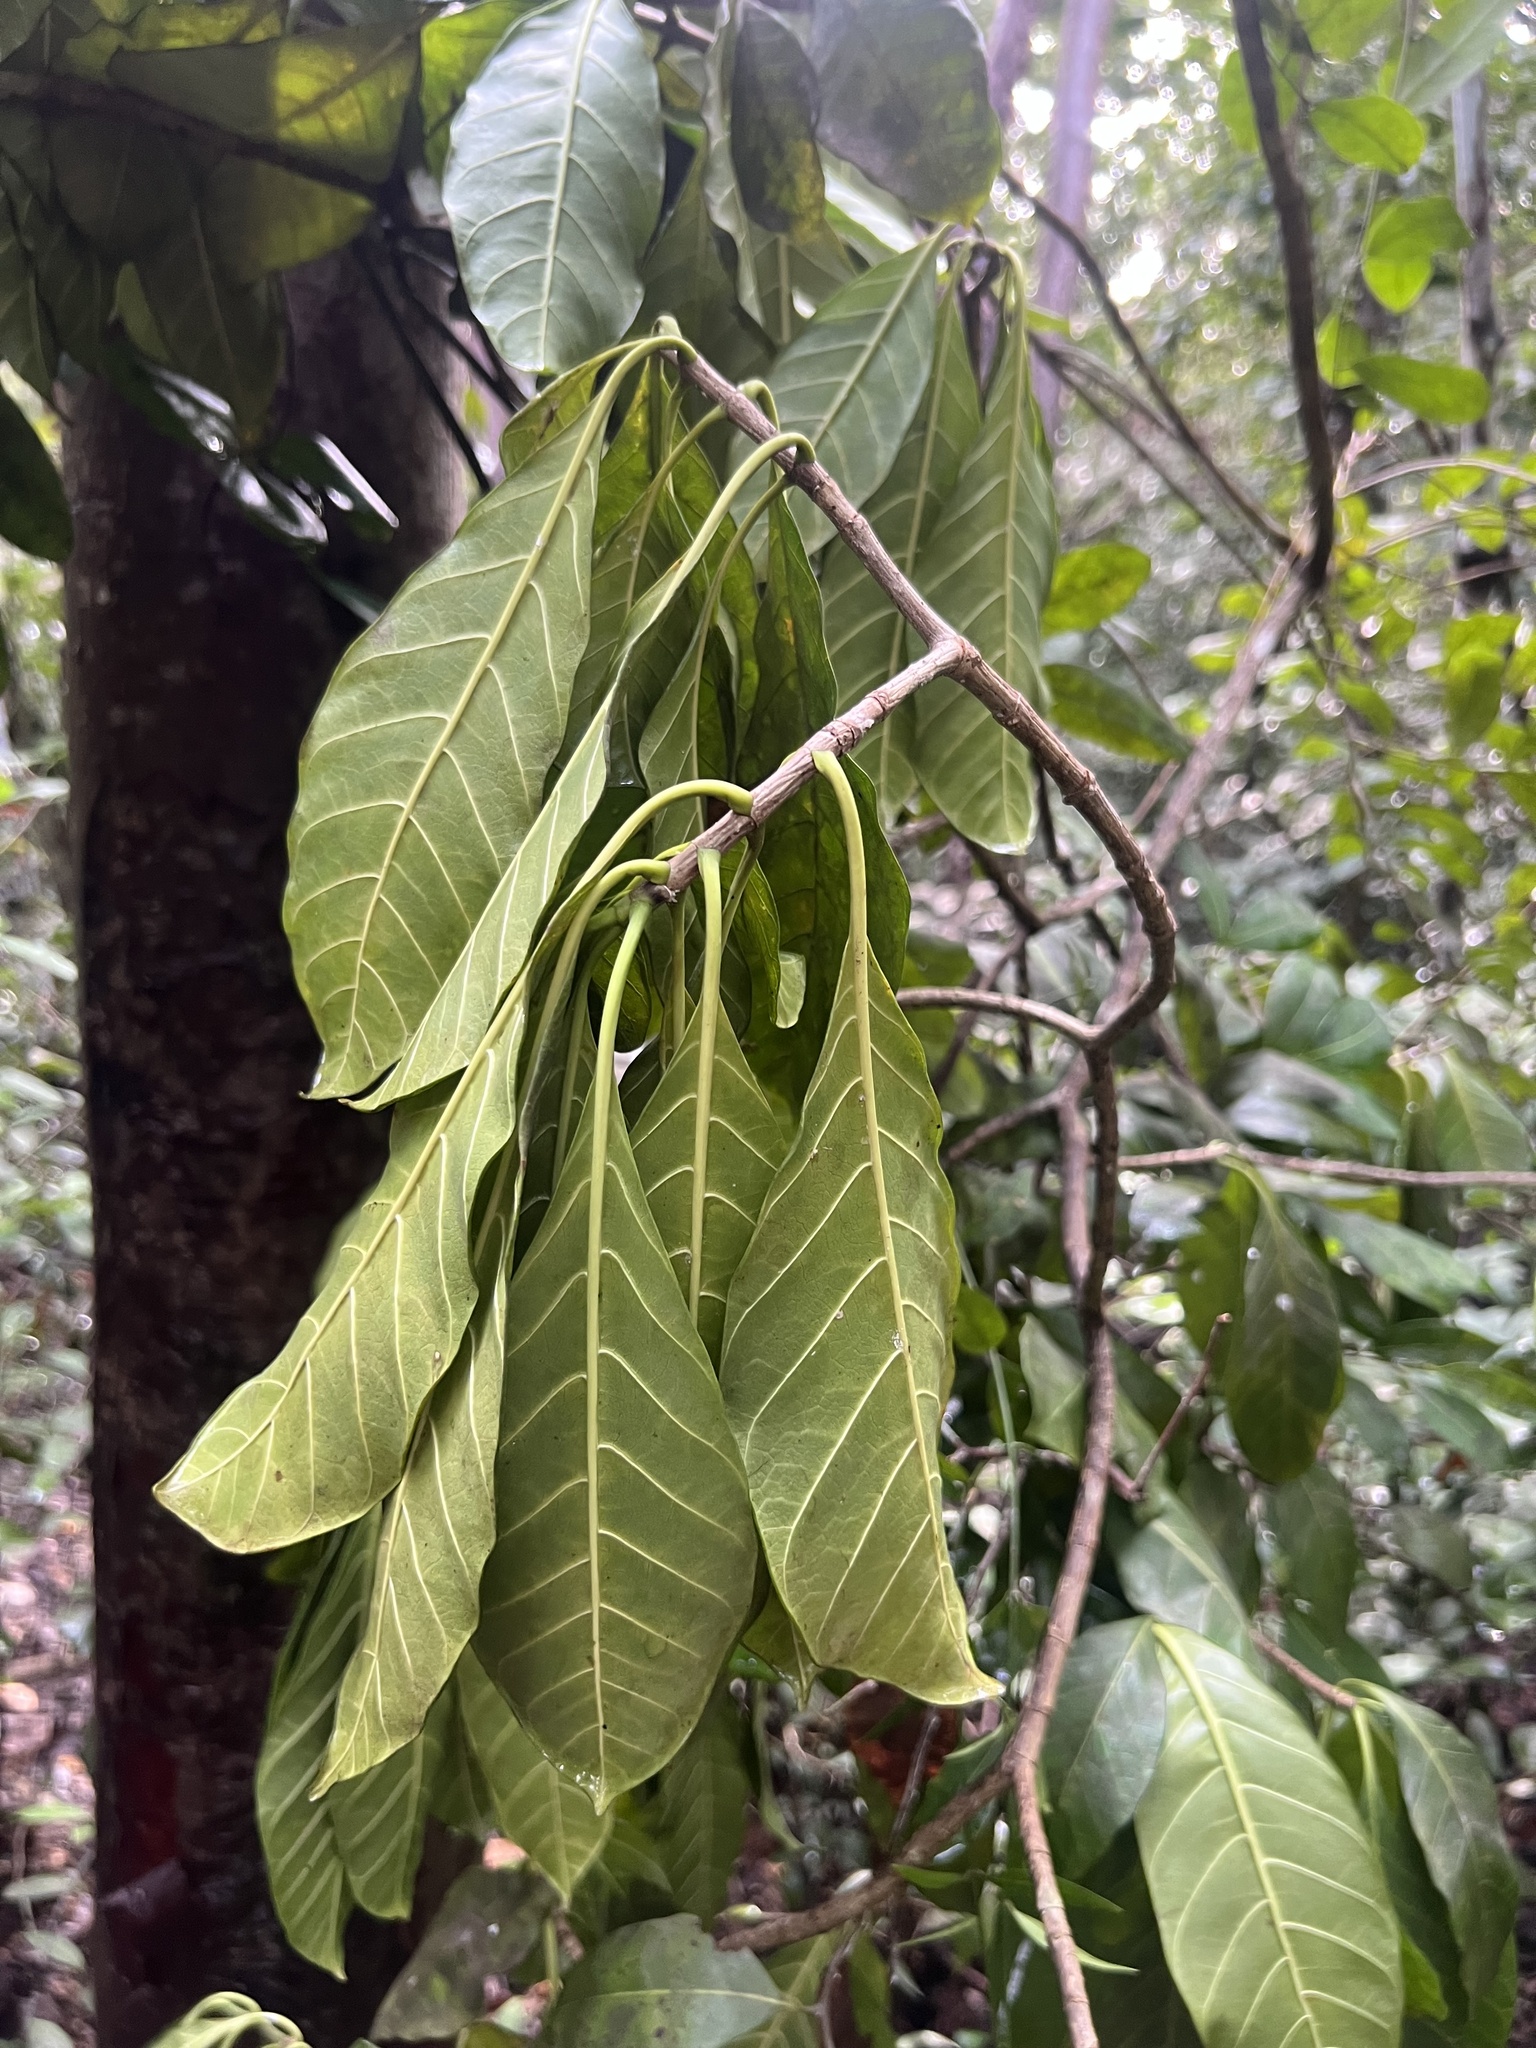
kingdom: Plantae
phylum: Tracheophyta
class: Magnoliopsida
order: Gentianales
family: Apocynaceae
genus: Tabernaemontana
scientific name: Tabernaemontana laurifolia
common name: Slingshot
